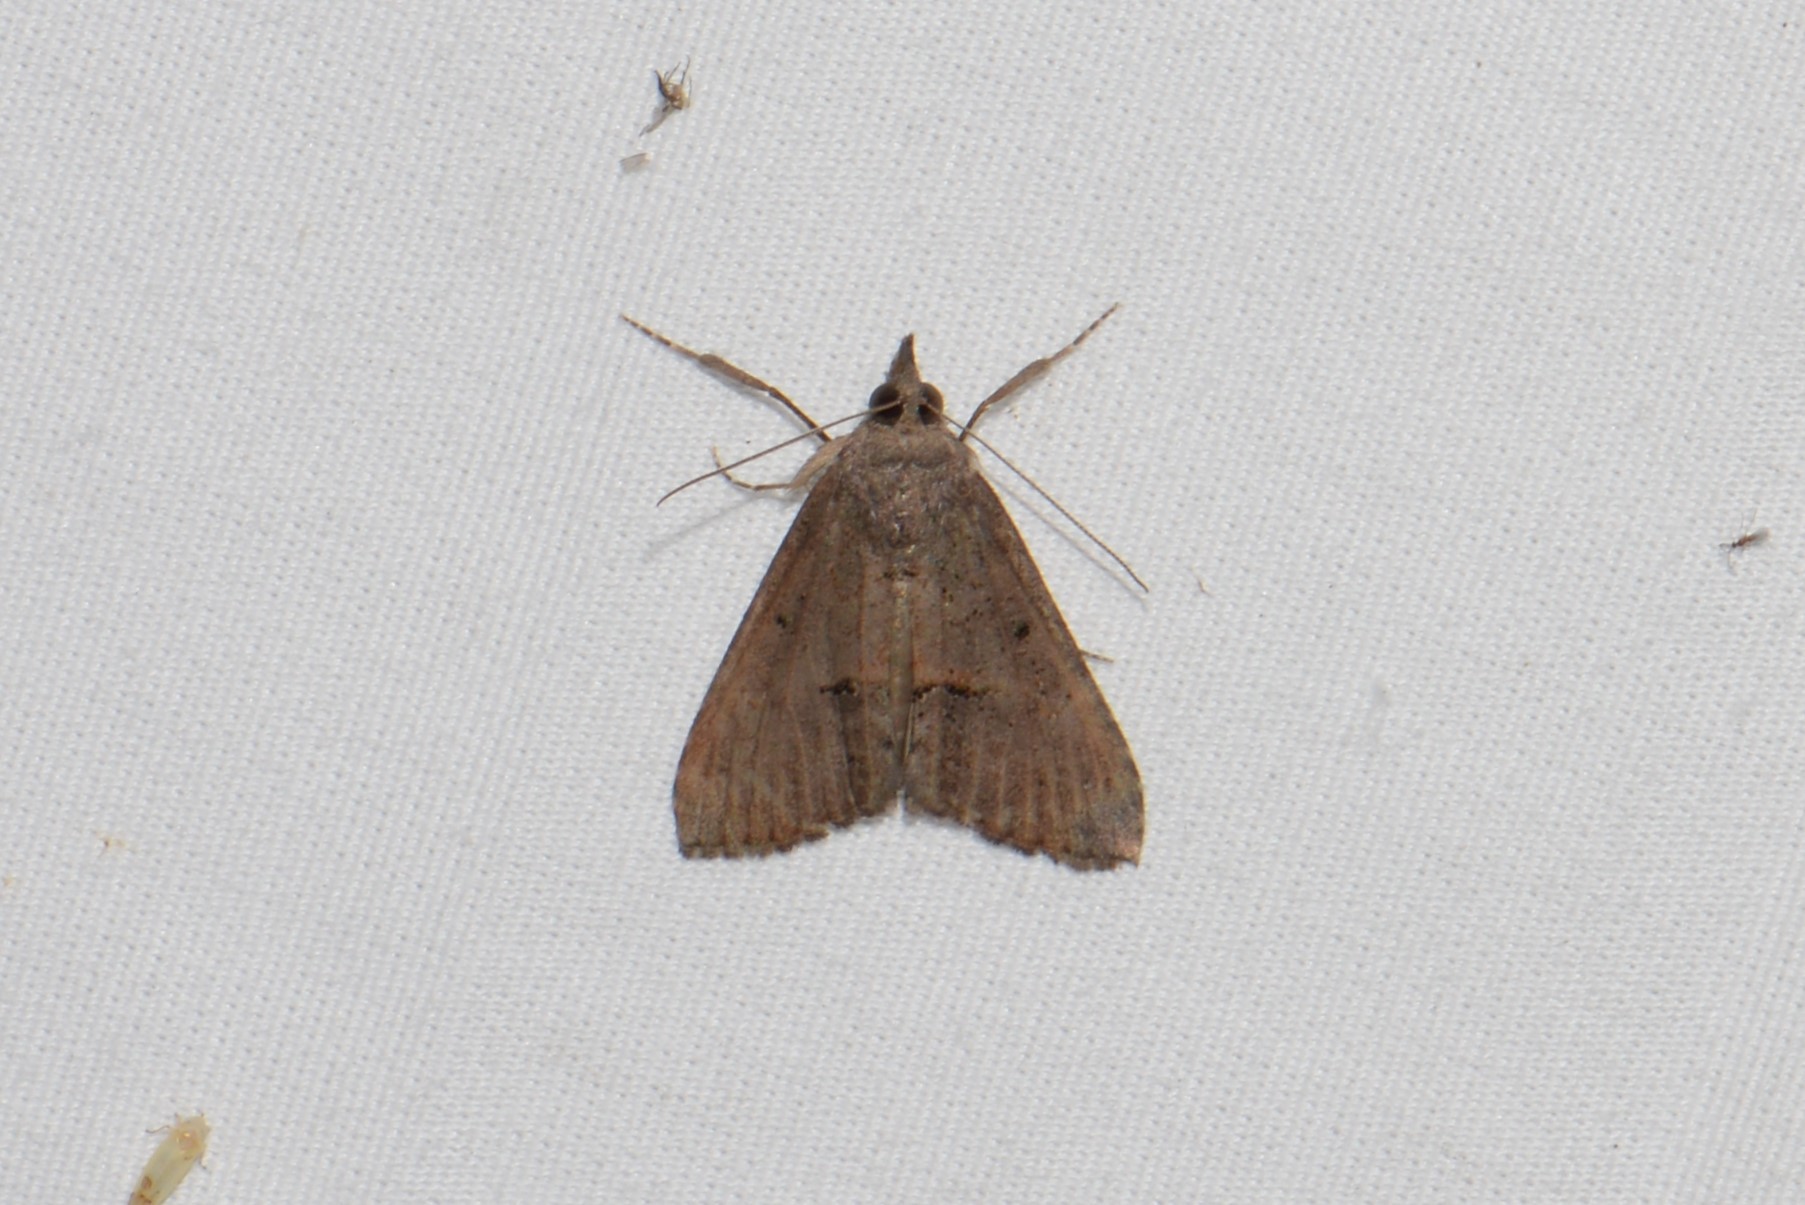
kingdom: Animalia
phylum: Arthropoda
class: Insecta
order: Lepidoptera
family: Erebidae
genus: Hypena
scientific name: Hypena scabra
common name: Green cloverworm
